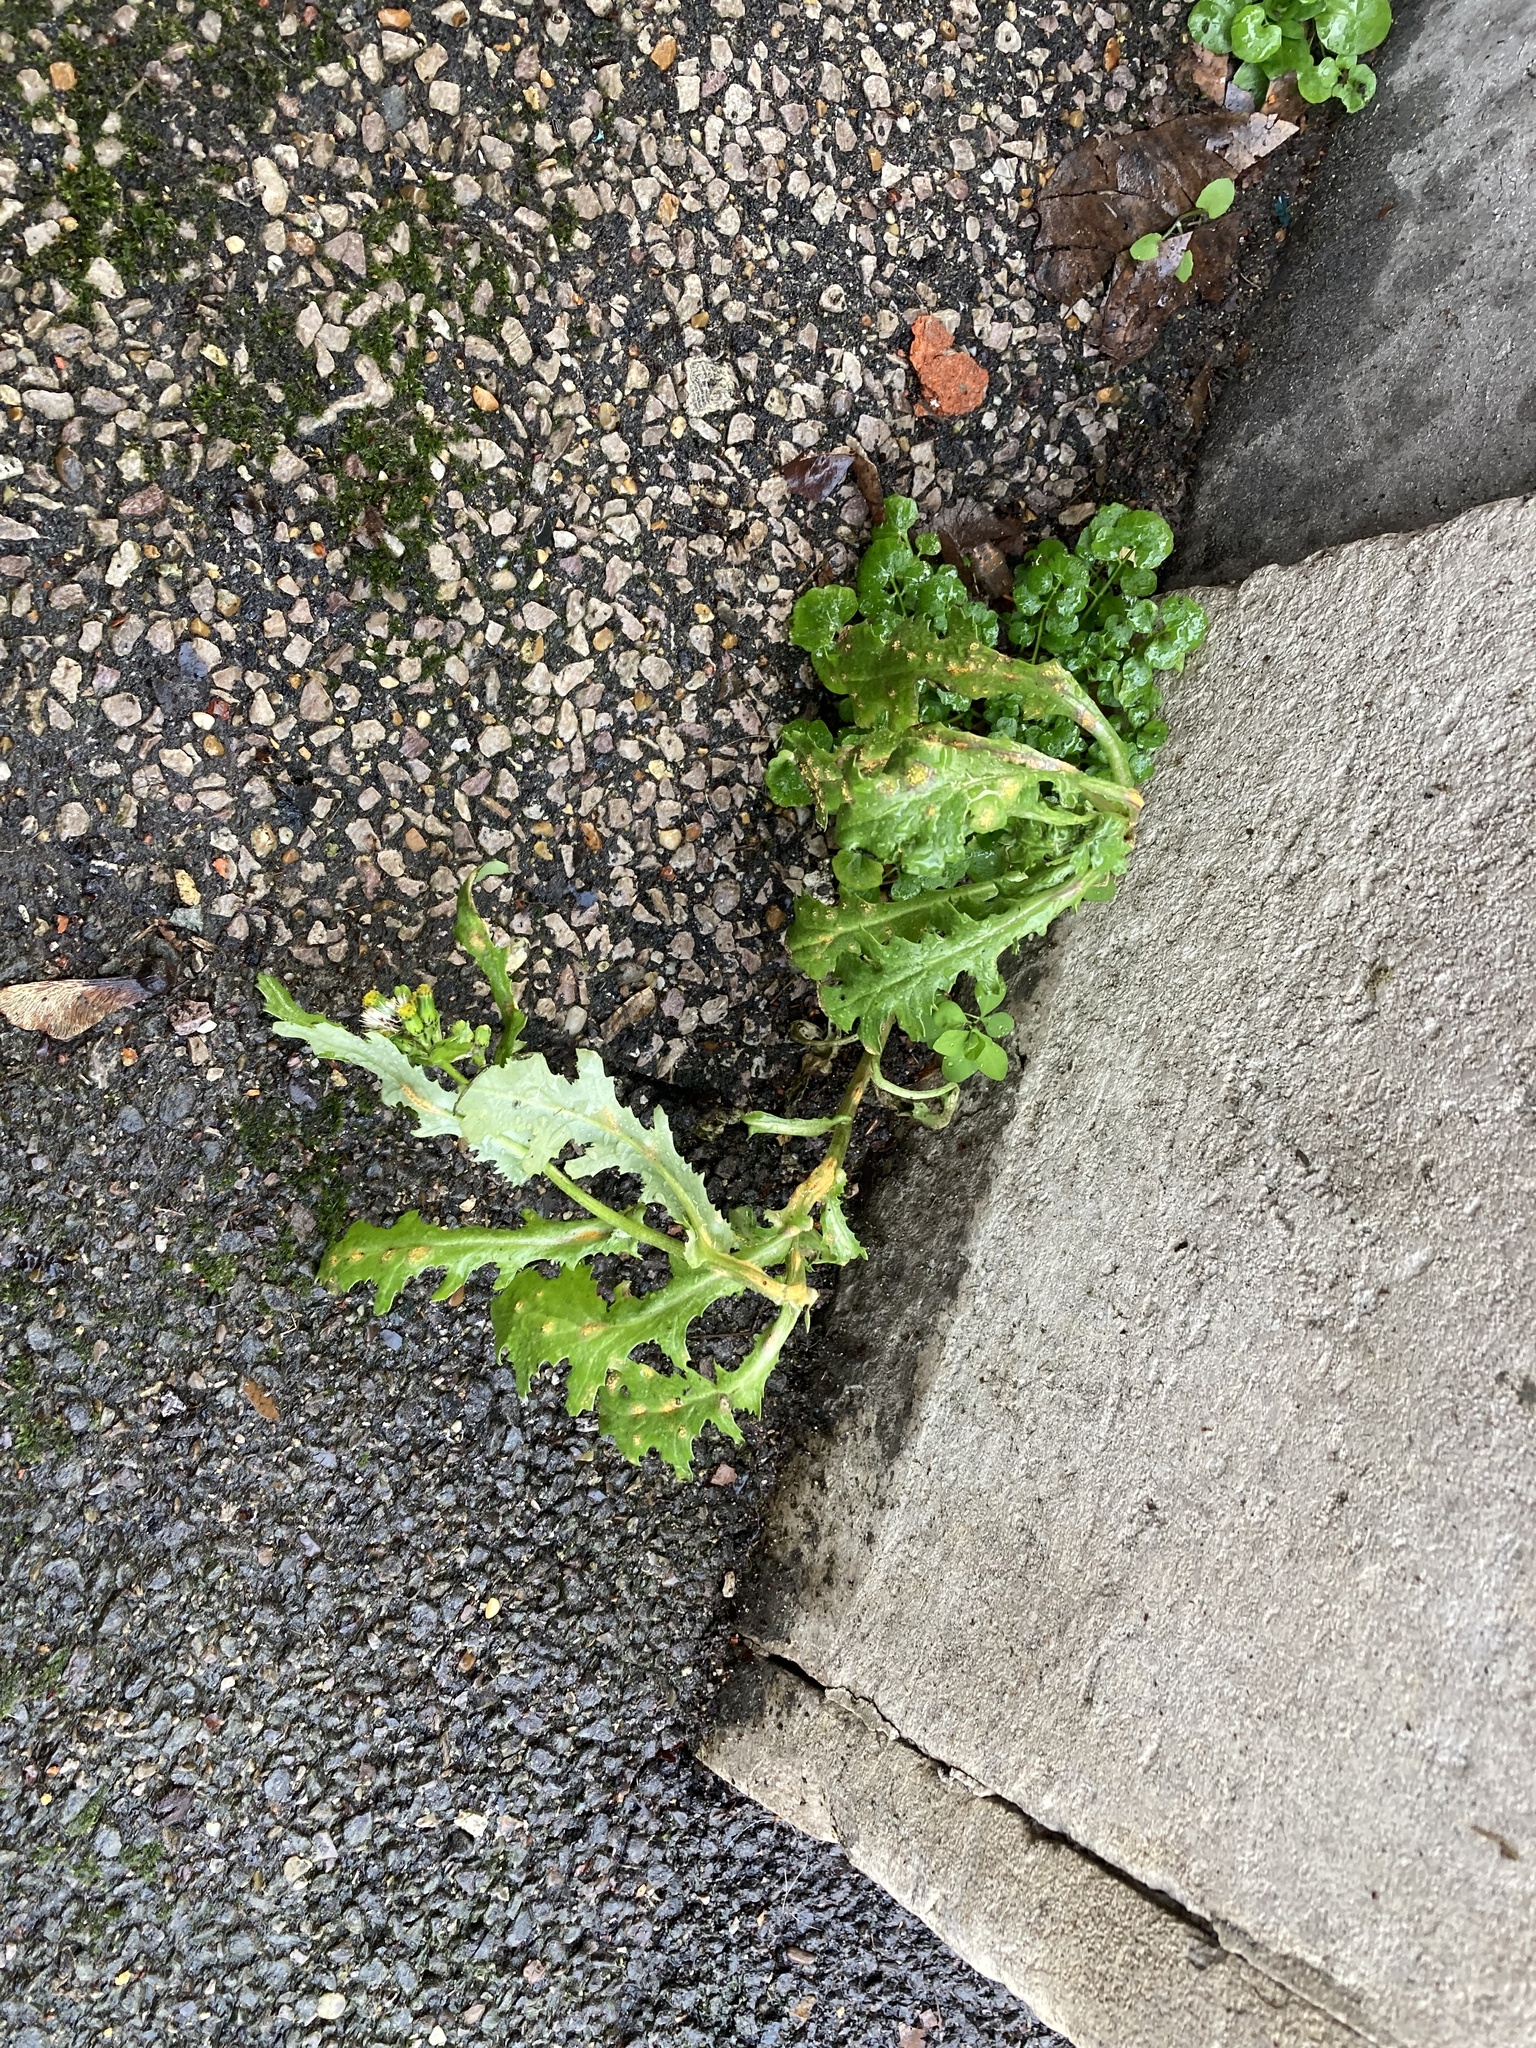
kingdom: Plantae
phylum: Tracheophyta
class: Magnoliopsida
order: Asterales
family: Asteraceae
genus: Senecio
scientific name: Senecio vulgaris
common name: Old-man-in-the-spring
